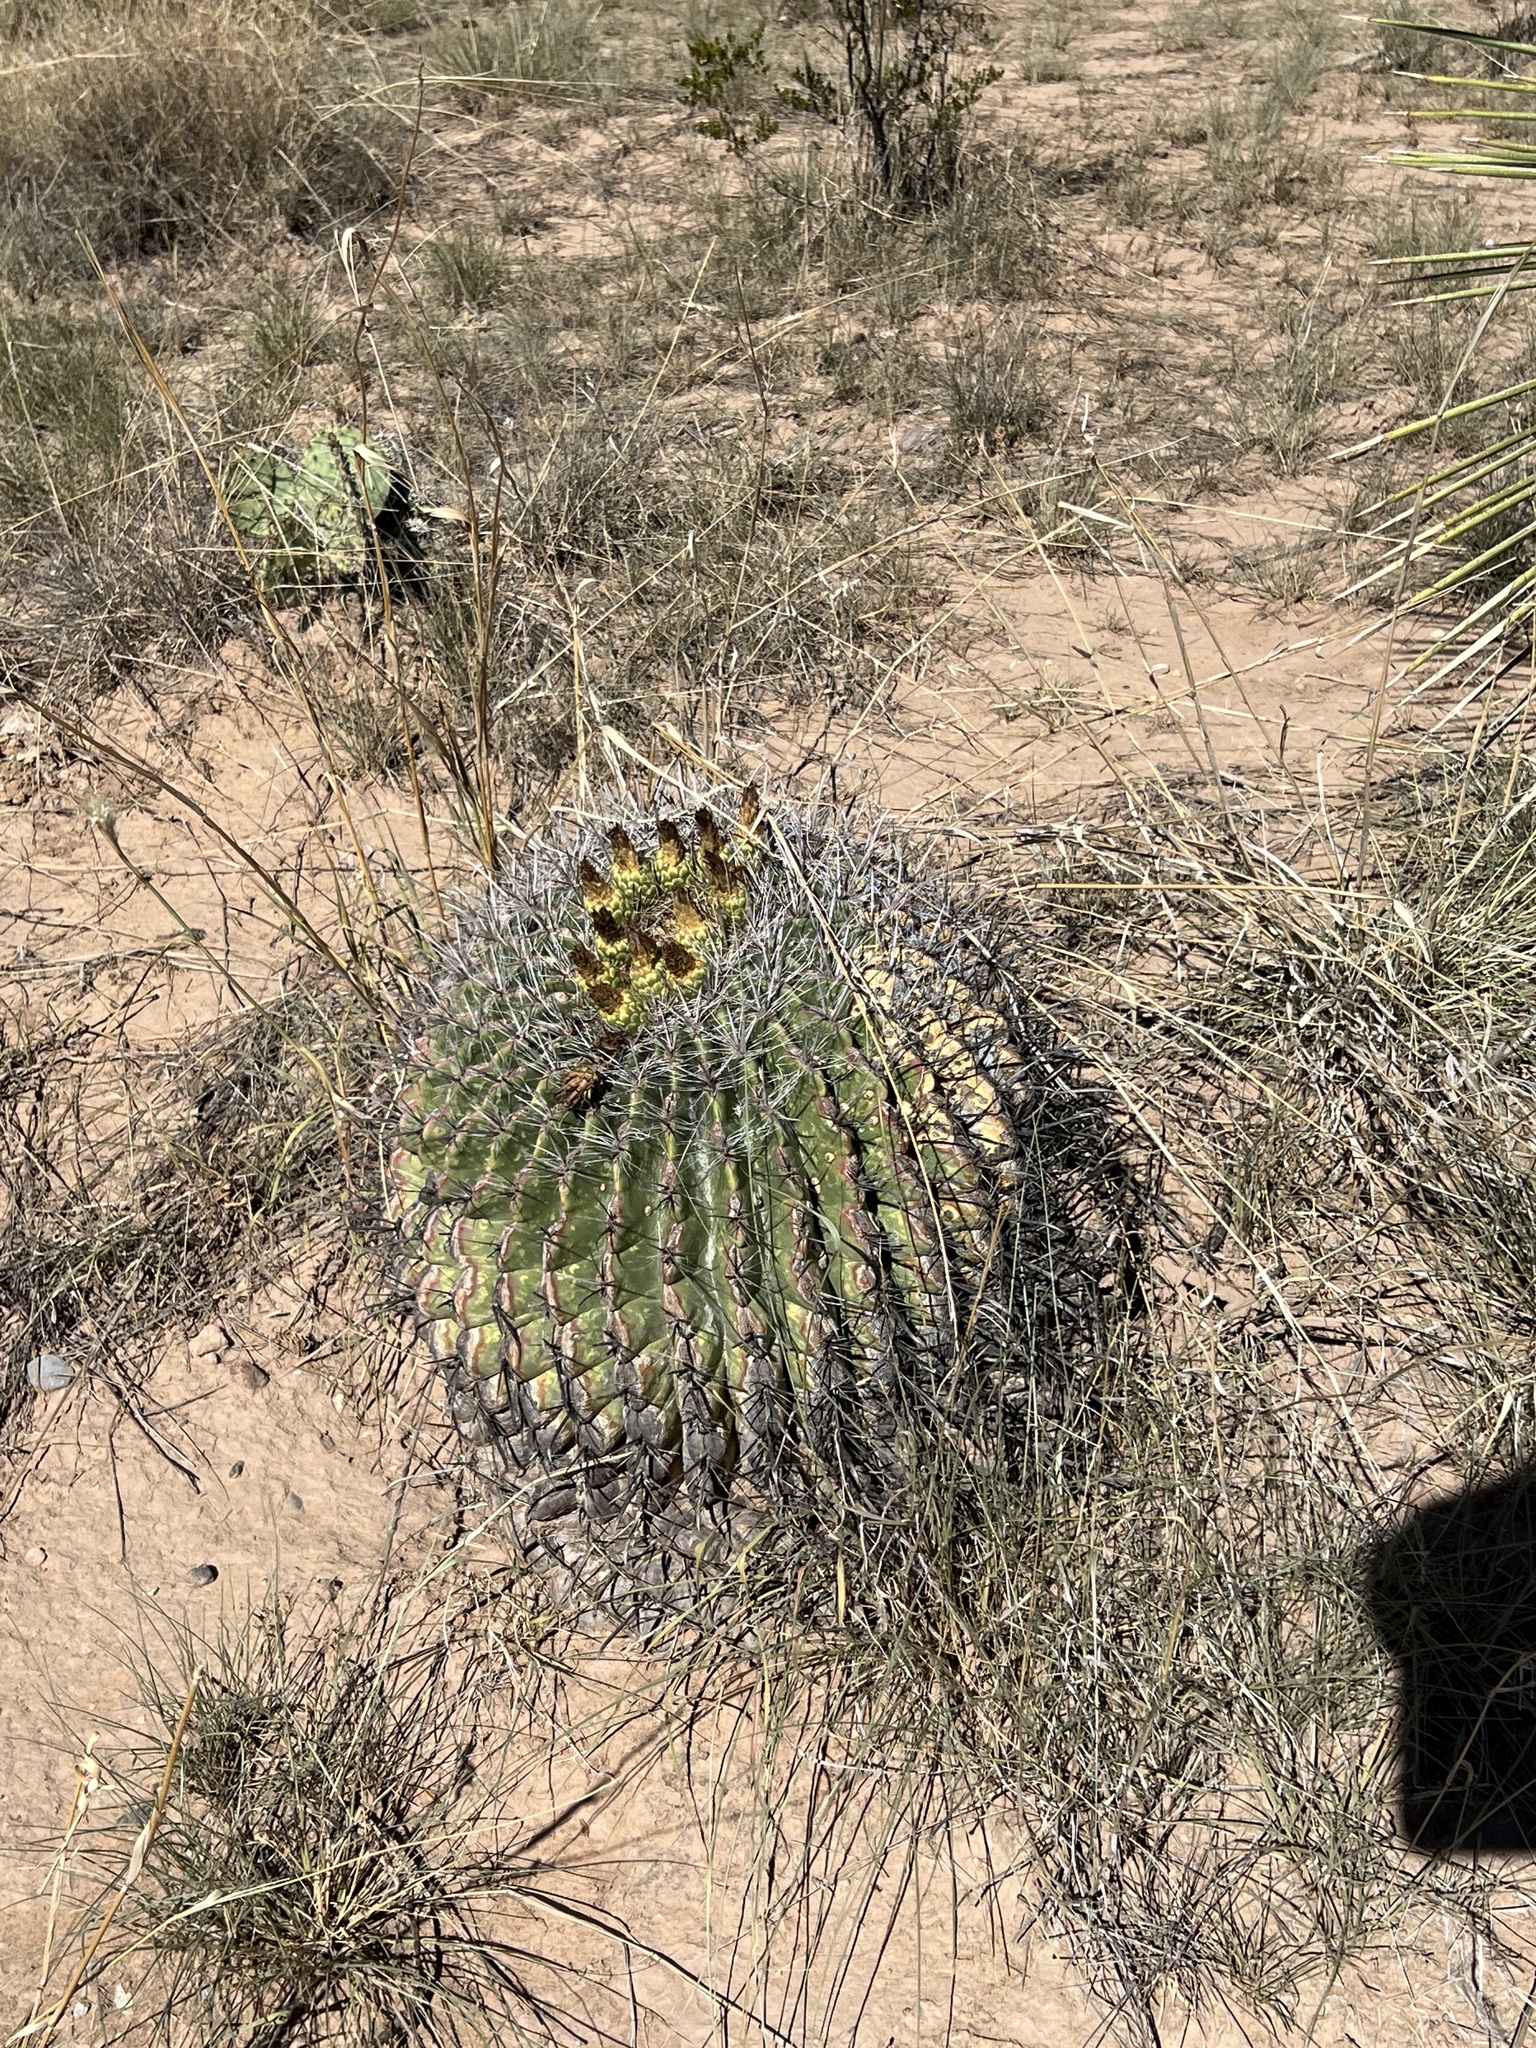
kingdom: Plantae
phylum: Tracheophyta
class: Magnoliopsida
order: Caryophyllales
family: Cactaceae
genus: Ferocactus
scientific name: Ferocactus wislizeni
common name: Candy barrel cactus
